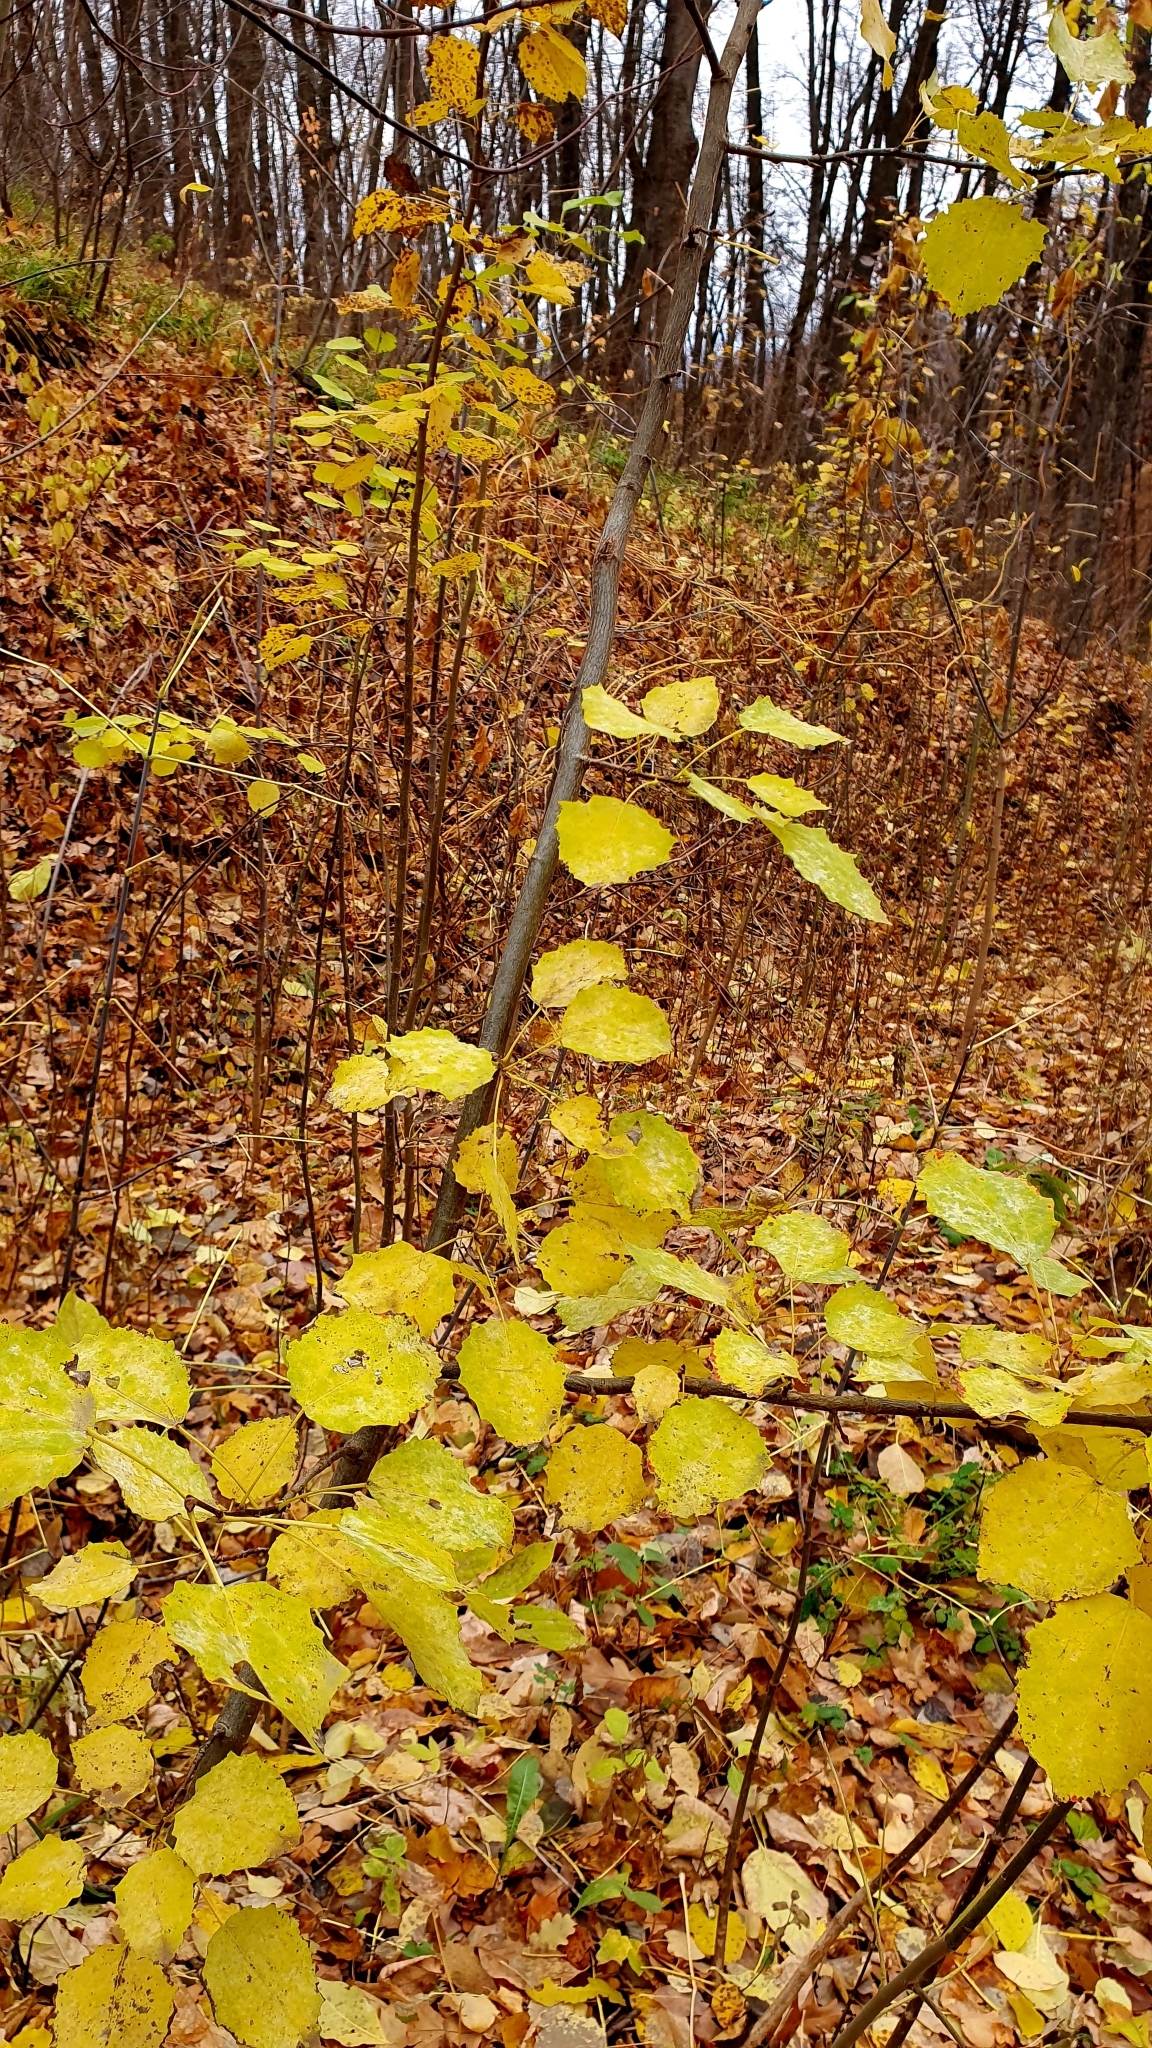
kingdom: Plantae
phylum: Tracheophyta
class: Magnoliopsida
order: Malpighiales
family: Salicaceae
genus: Populus
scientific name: Populus tremula
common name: European aspen
